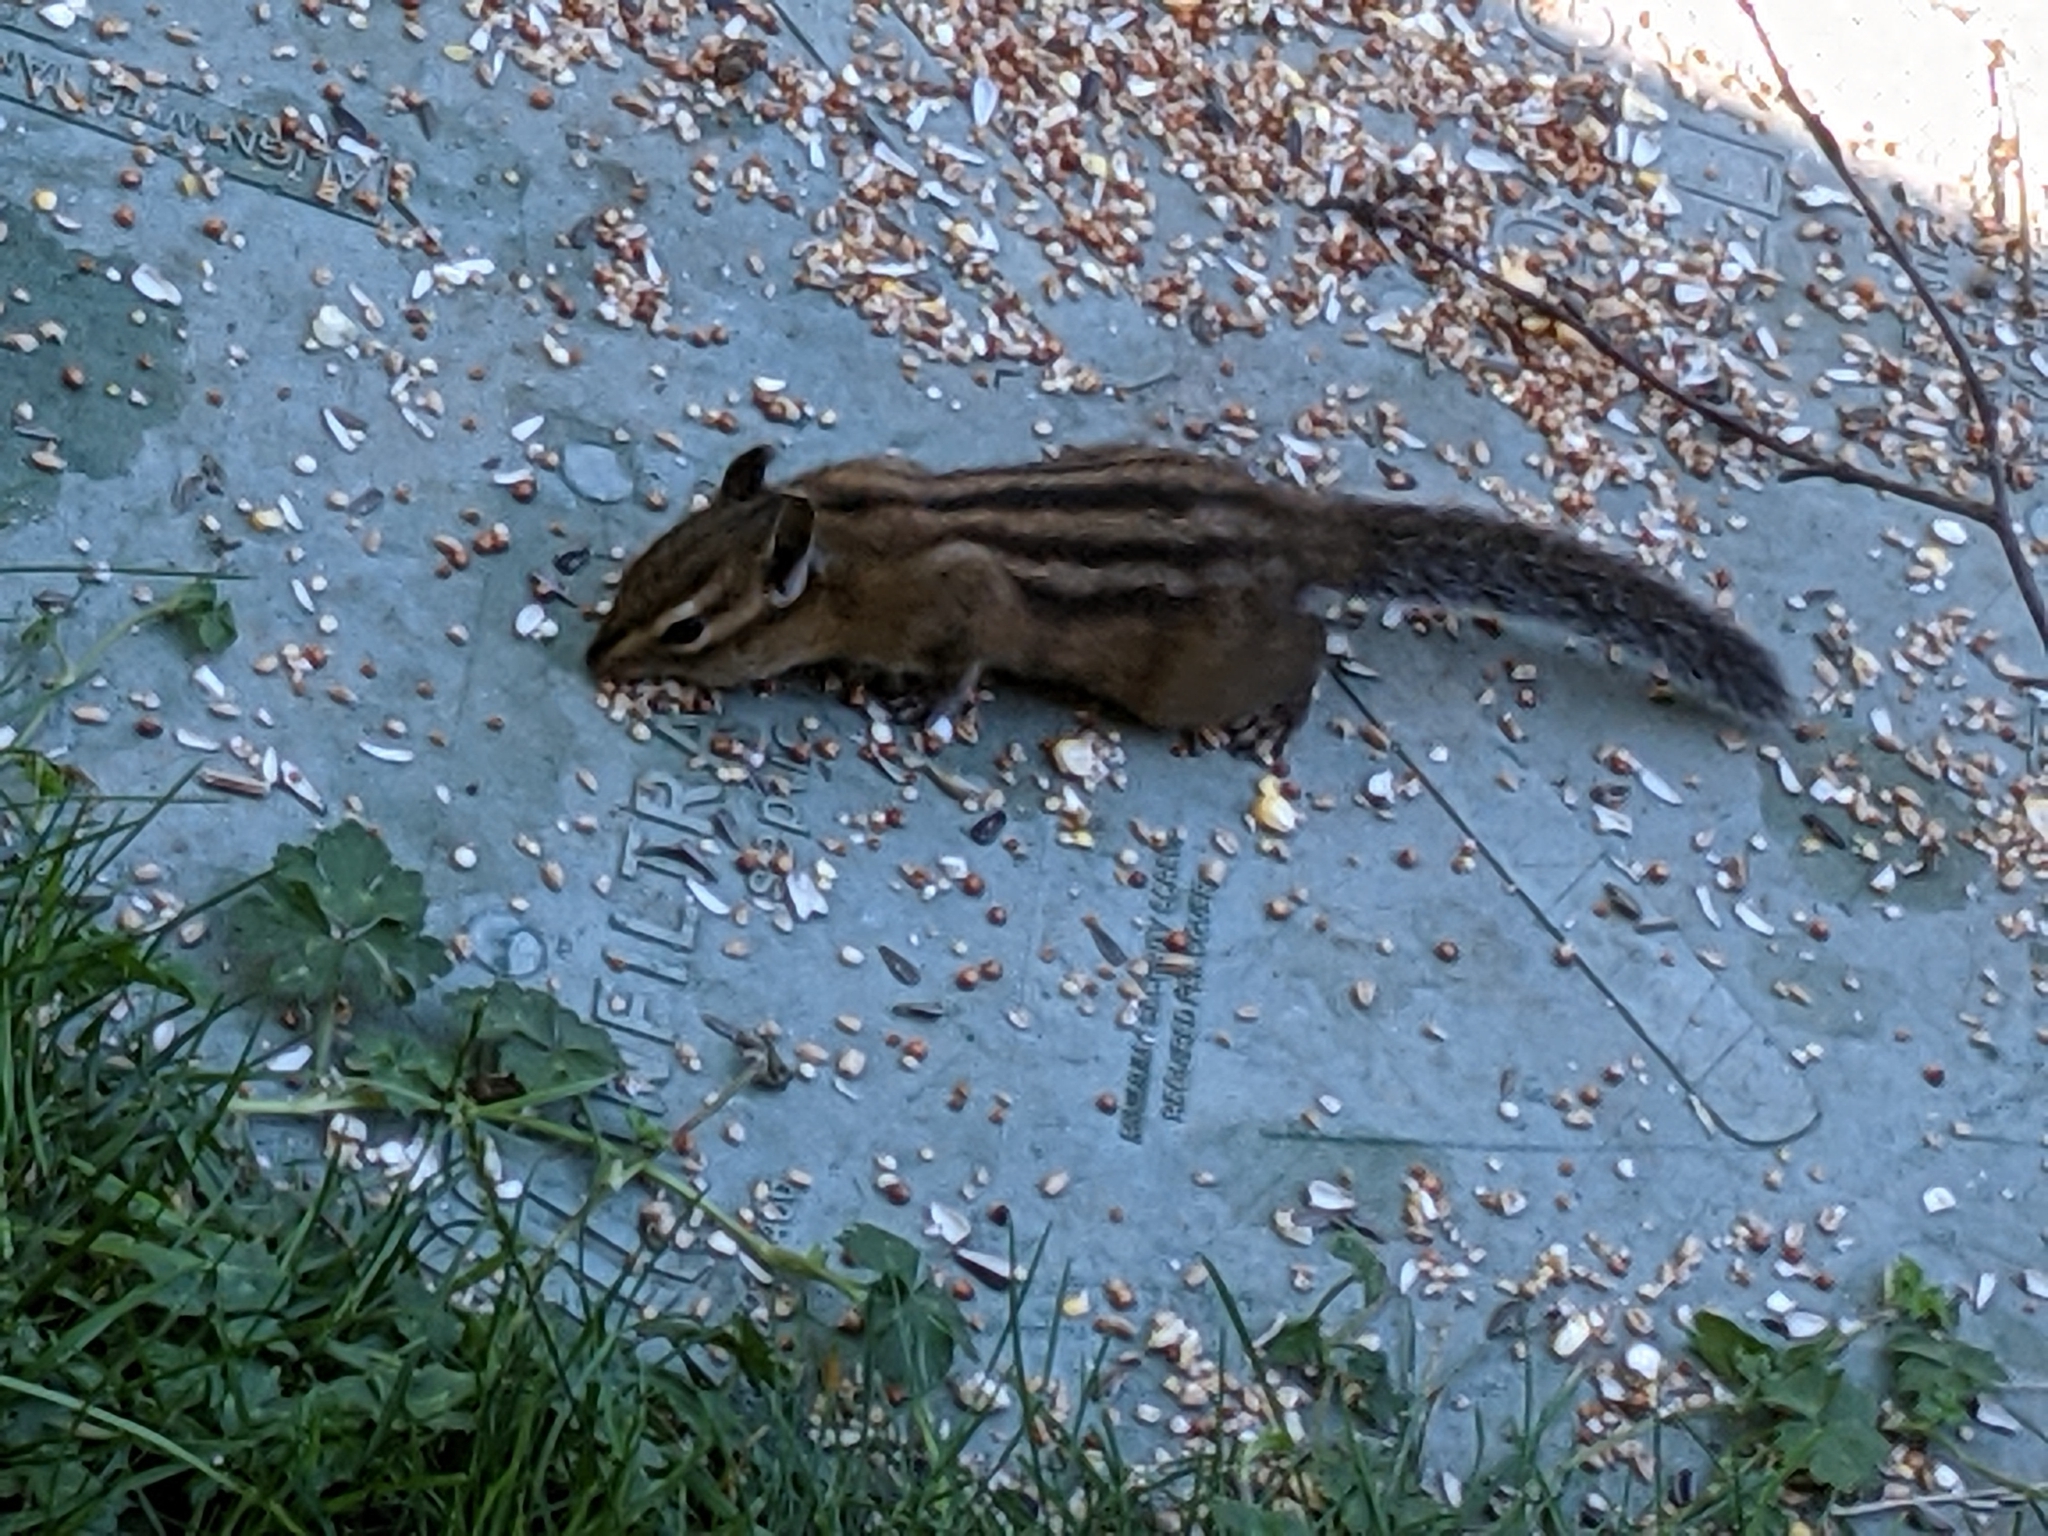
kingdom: Animalia
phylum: Chordata
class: Mammalia
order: Rodentia
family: Sciuridae
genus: Tamias
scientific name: Tamias townsendii
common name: Townsend's chipmunk
